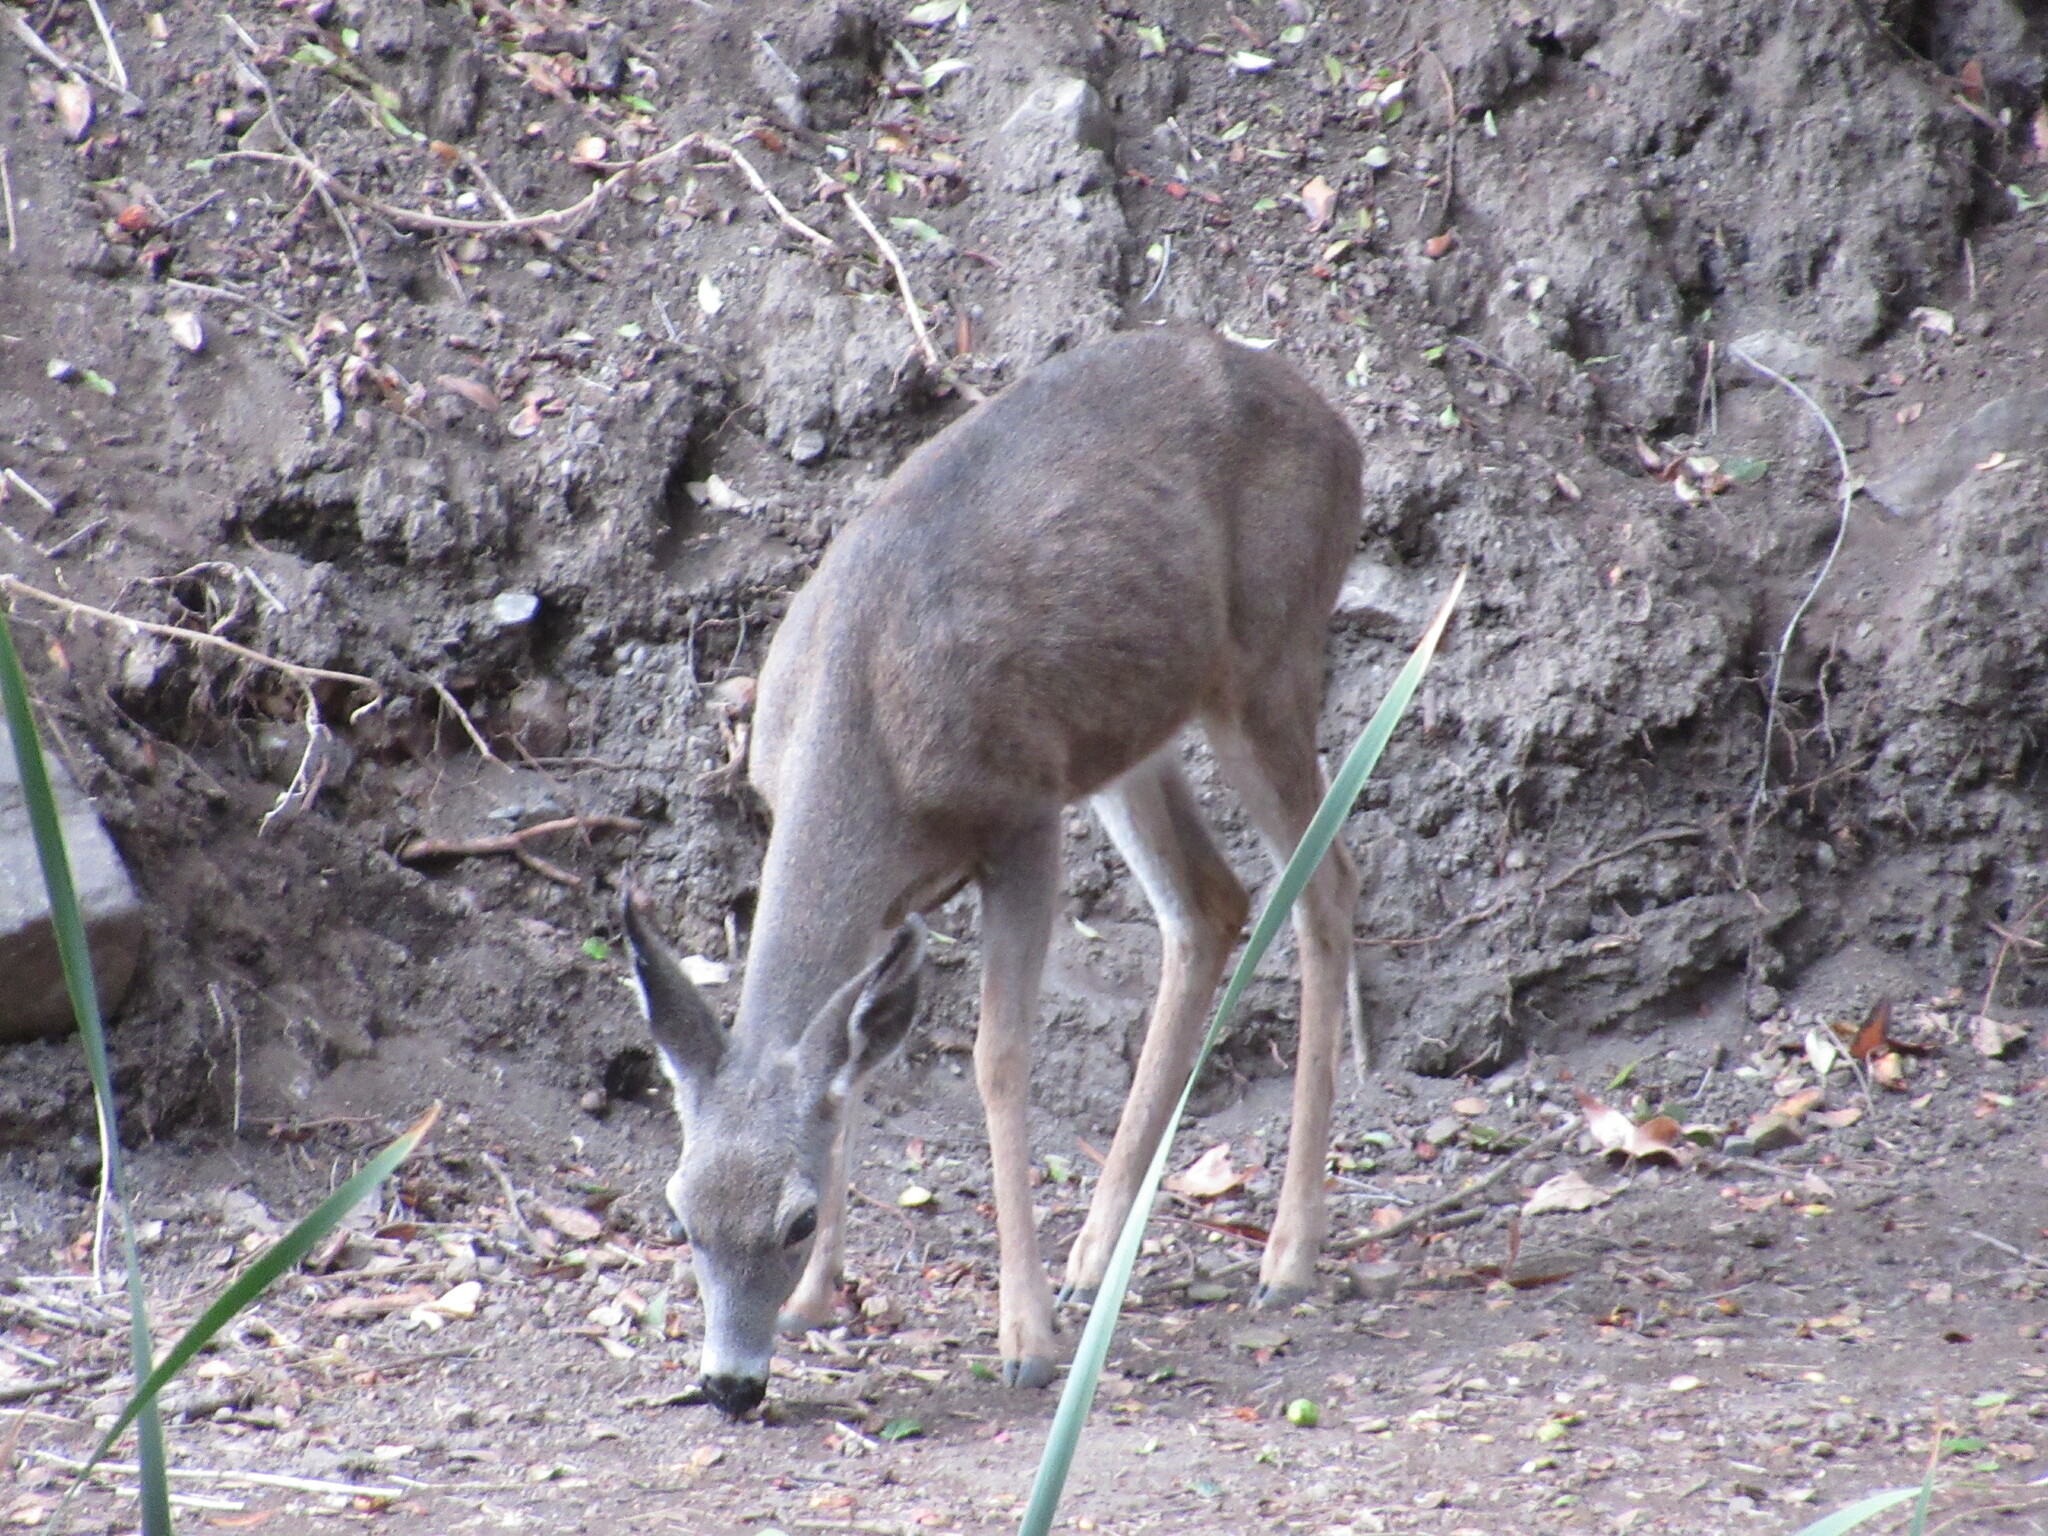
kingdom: Animalia
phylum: Chordata
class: Mammalia
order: Artiodactyla
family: Cervidae
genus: Odocoileus
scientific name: Odocoileus hemionus
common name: Mule deer
